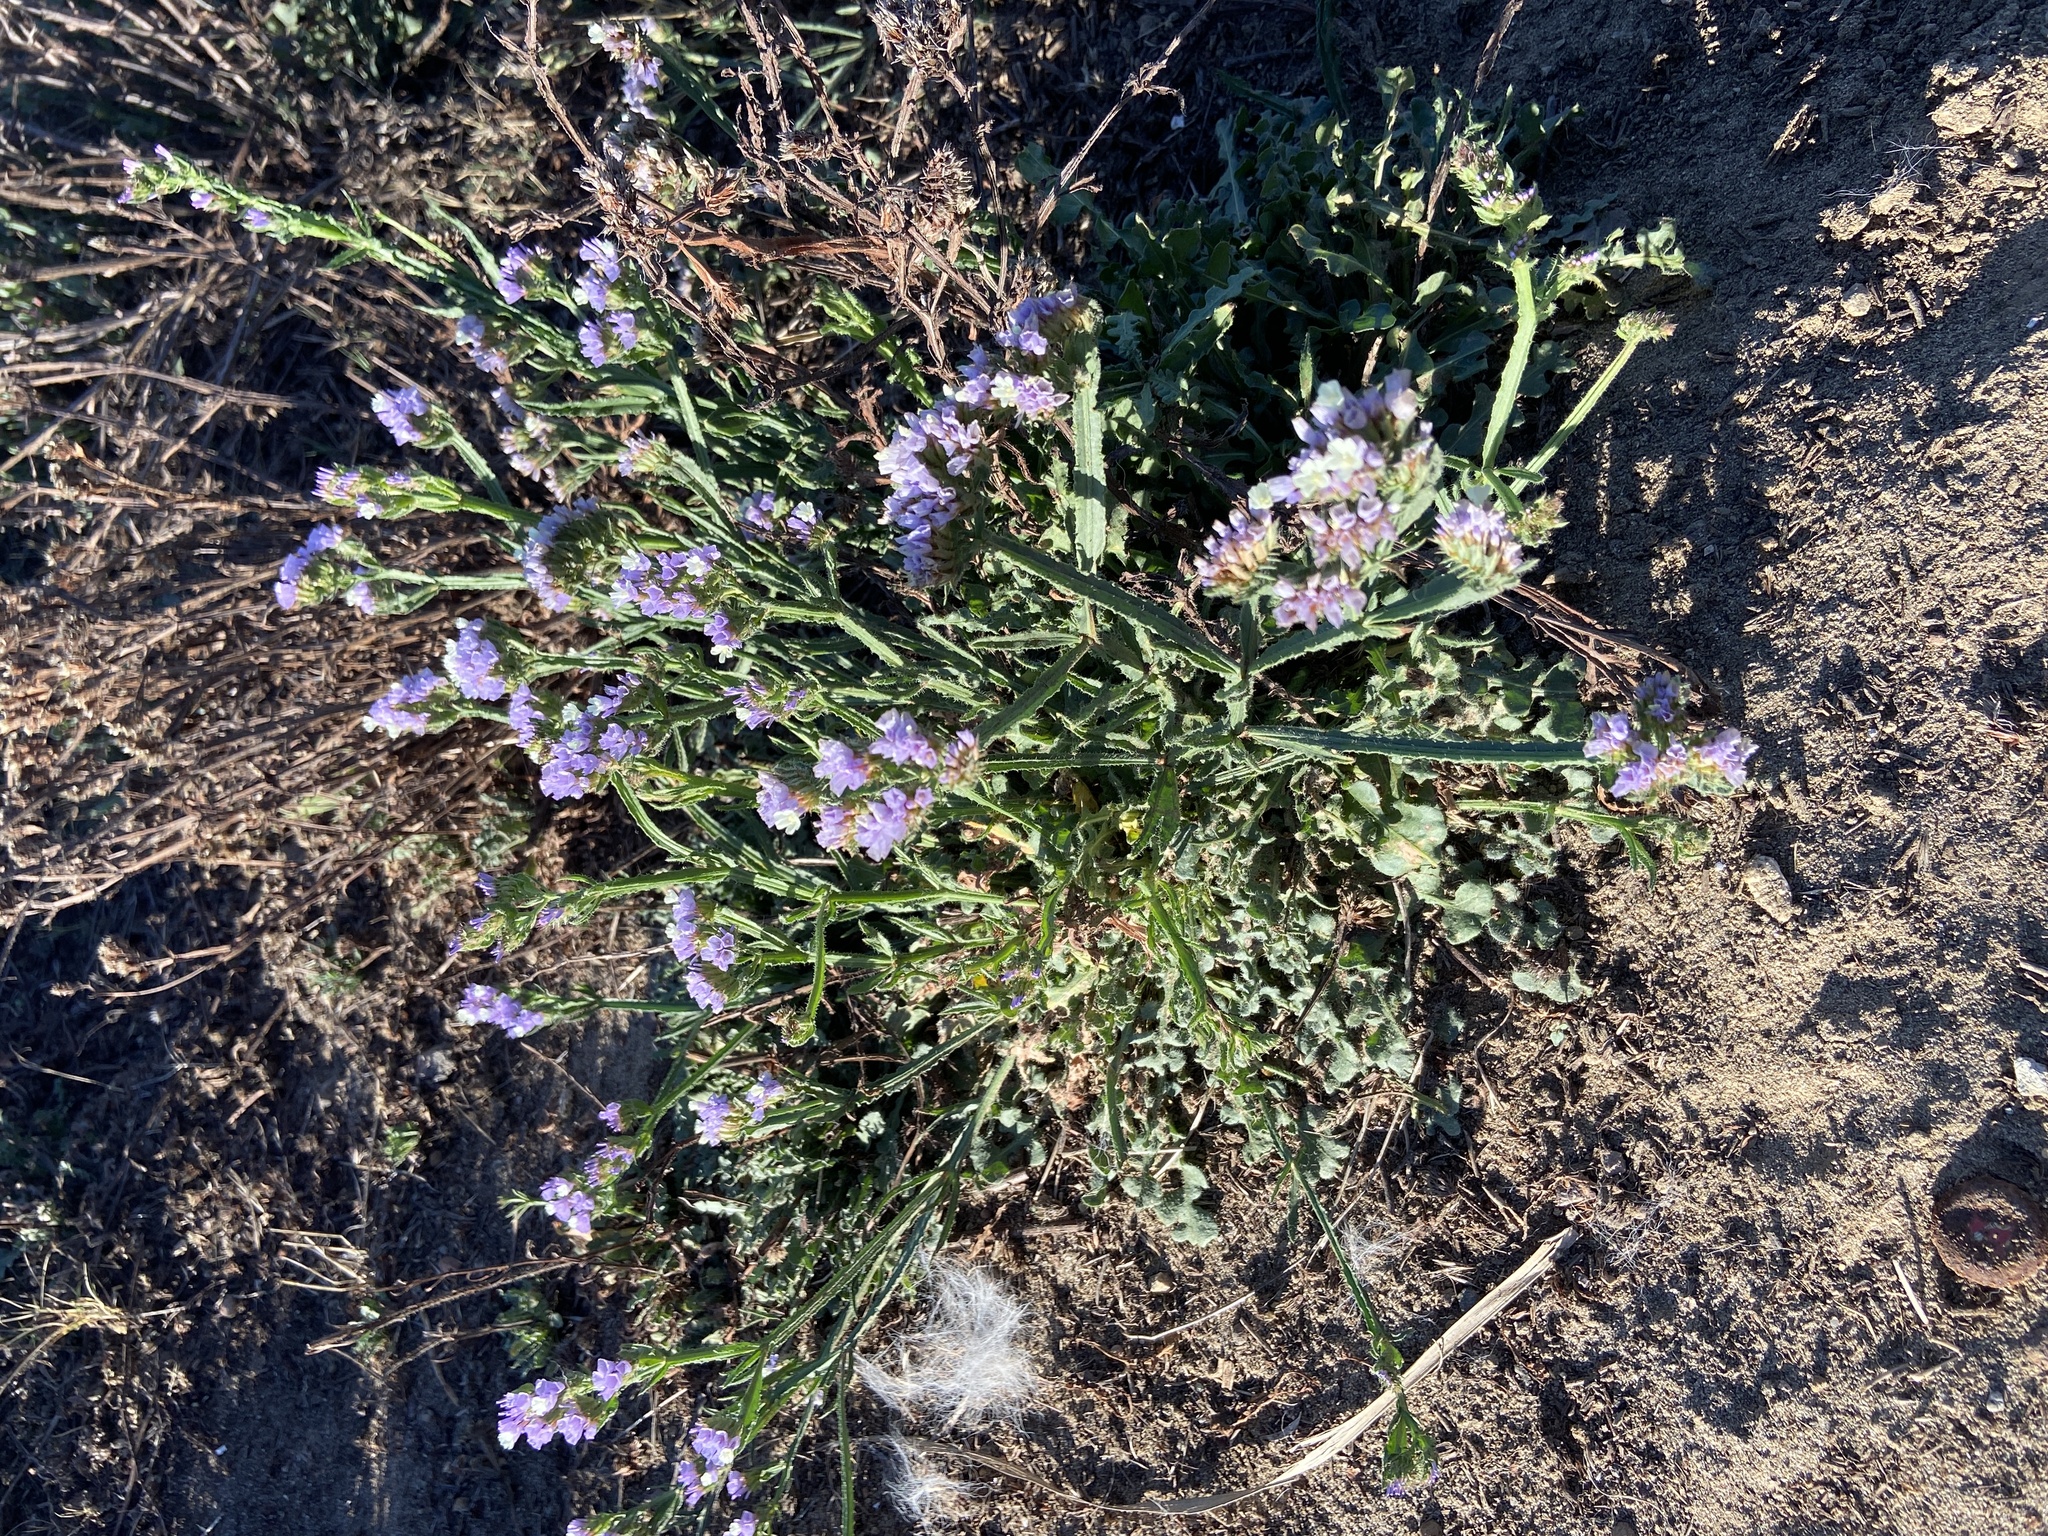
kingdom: Plantae
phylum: Tracheophyta
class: Magnoliopsida
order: Caryophyllales
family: Plumbaginaceae
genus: Limonium
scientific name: Limonium sinuatum
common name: Statice
